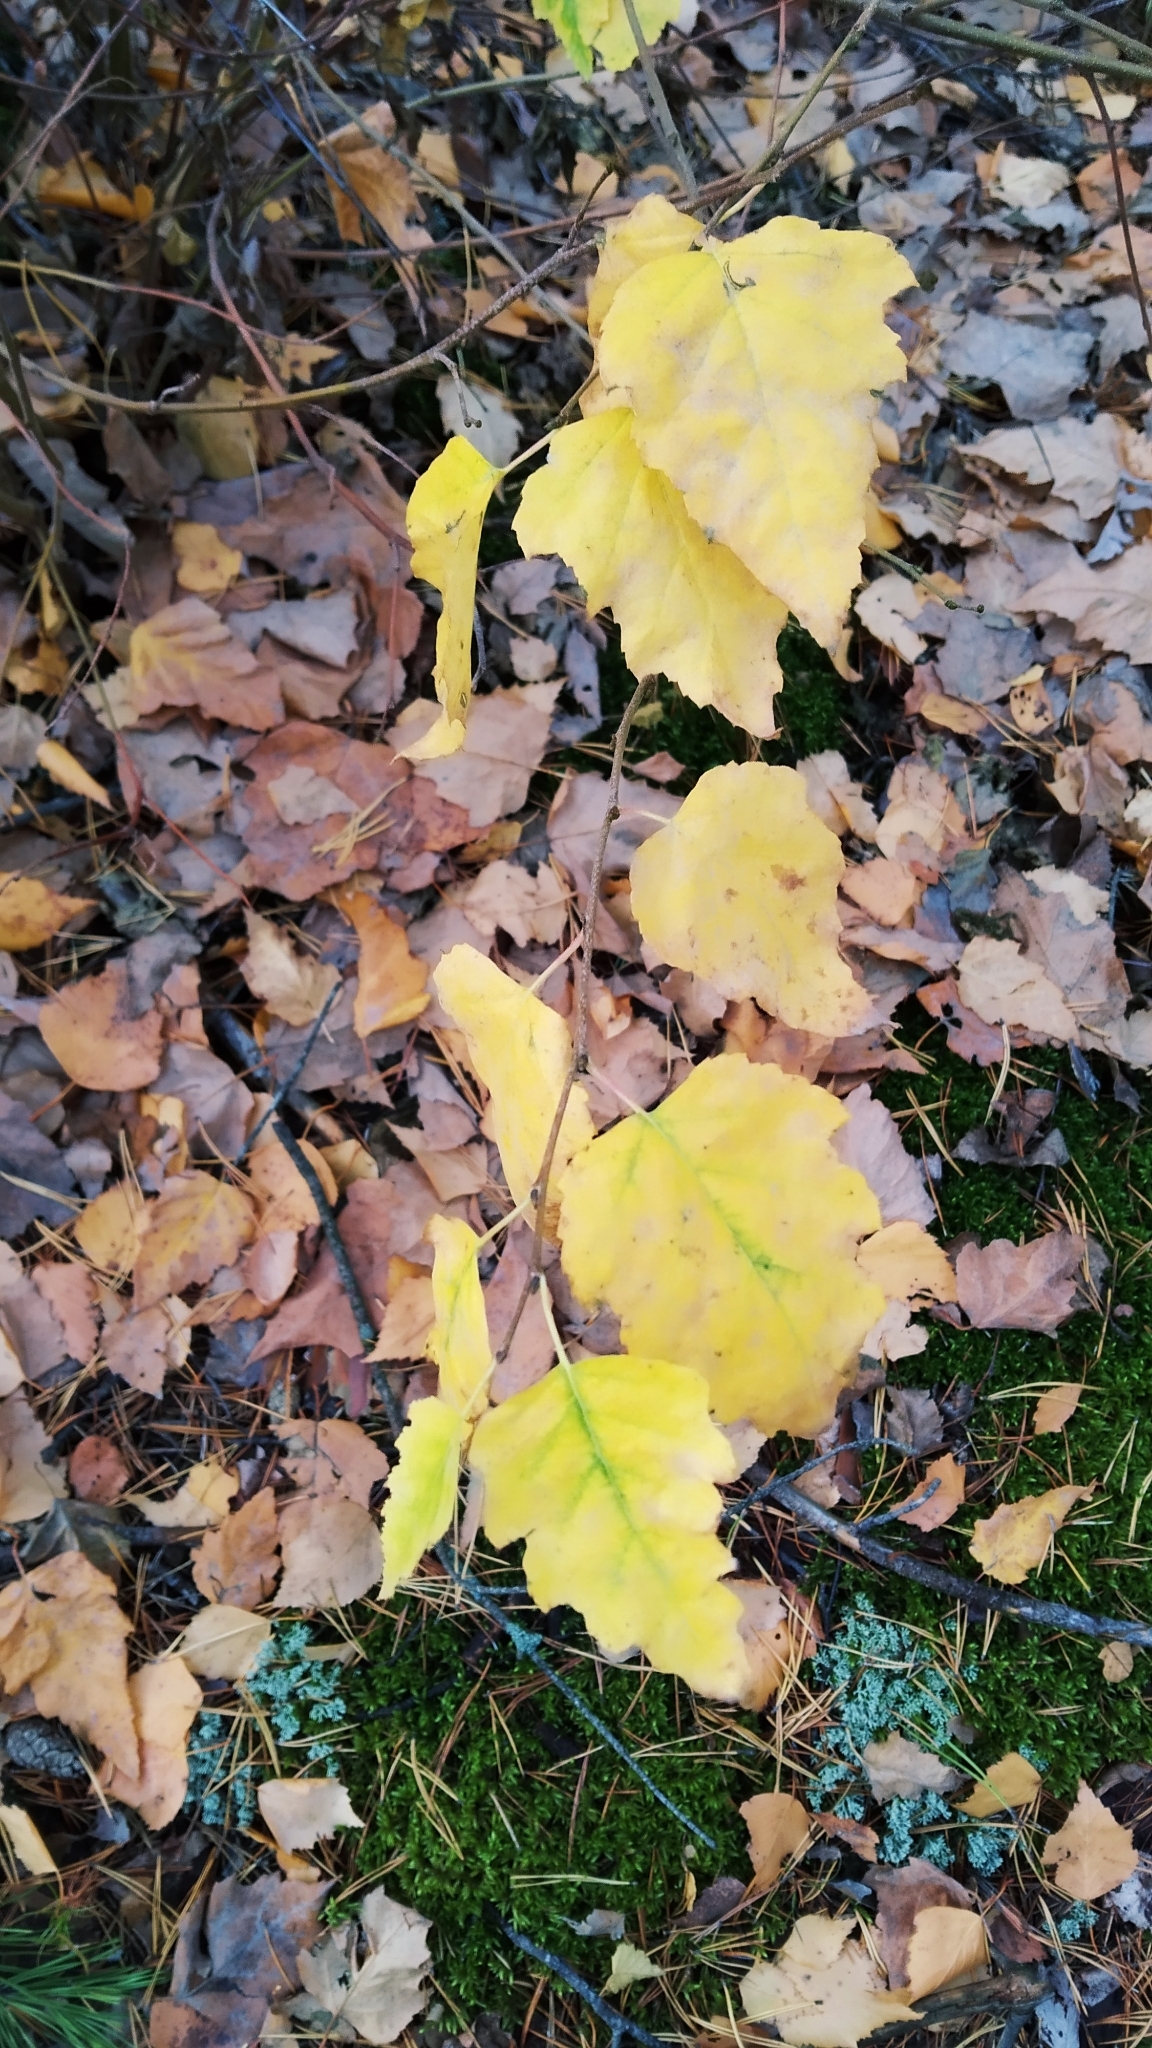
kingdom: Plantae
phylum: Tracheophyta
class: Magnoliopsida
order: Fagales
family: Betulaceae
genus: Betula
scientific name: Betula pendula
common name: Silver birch
